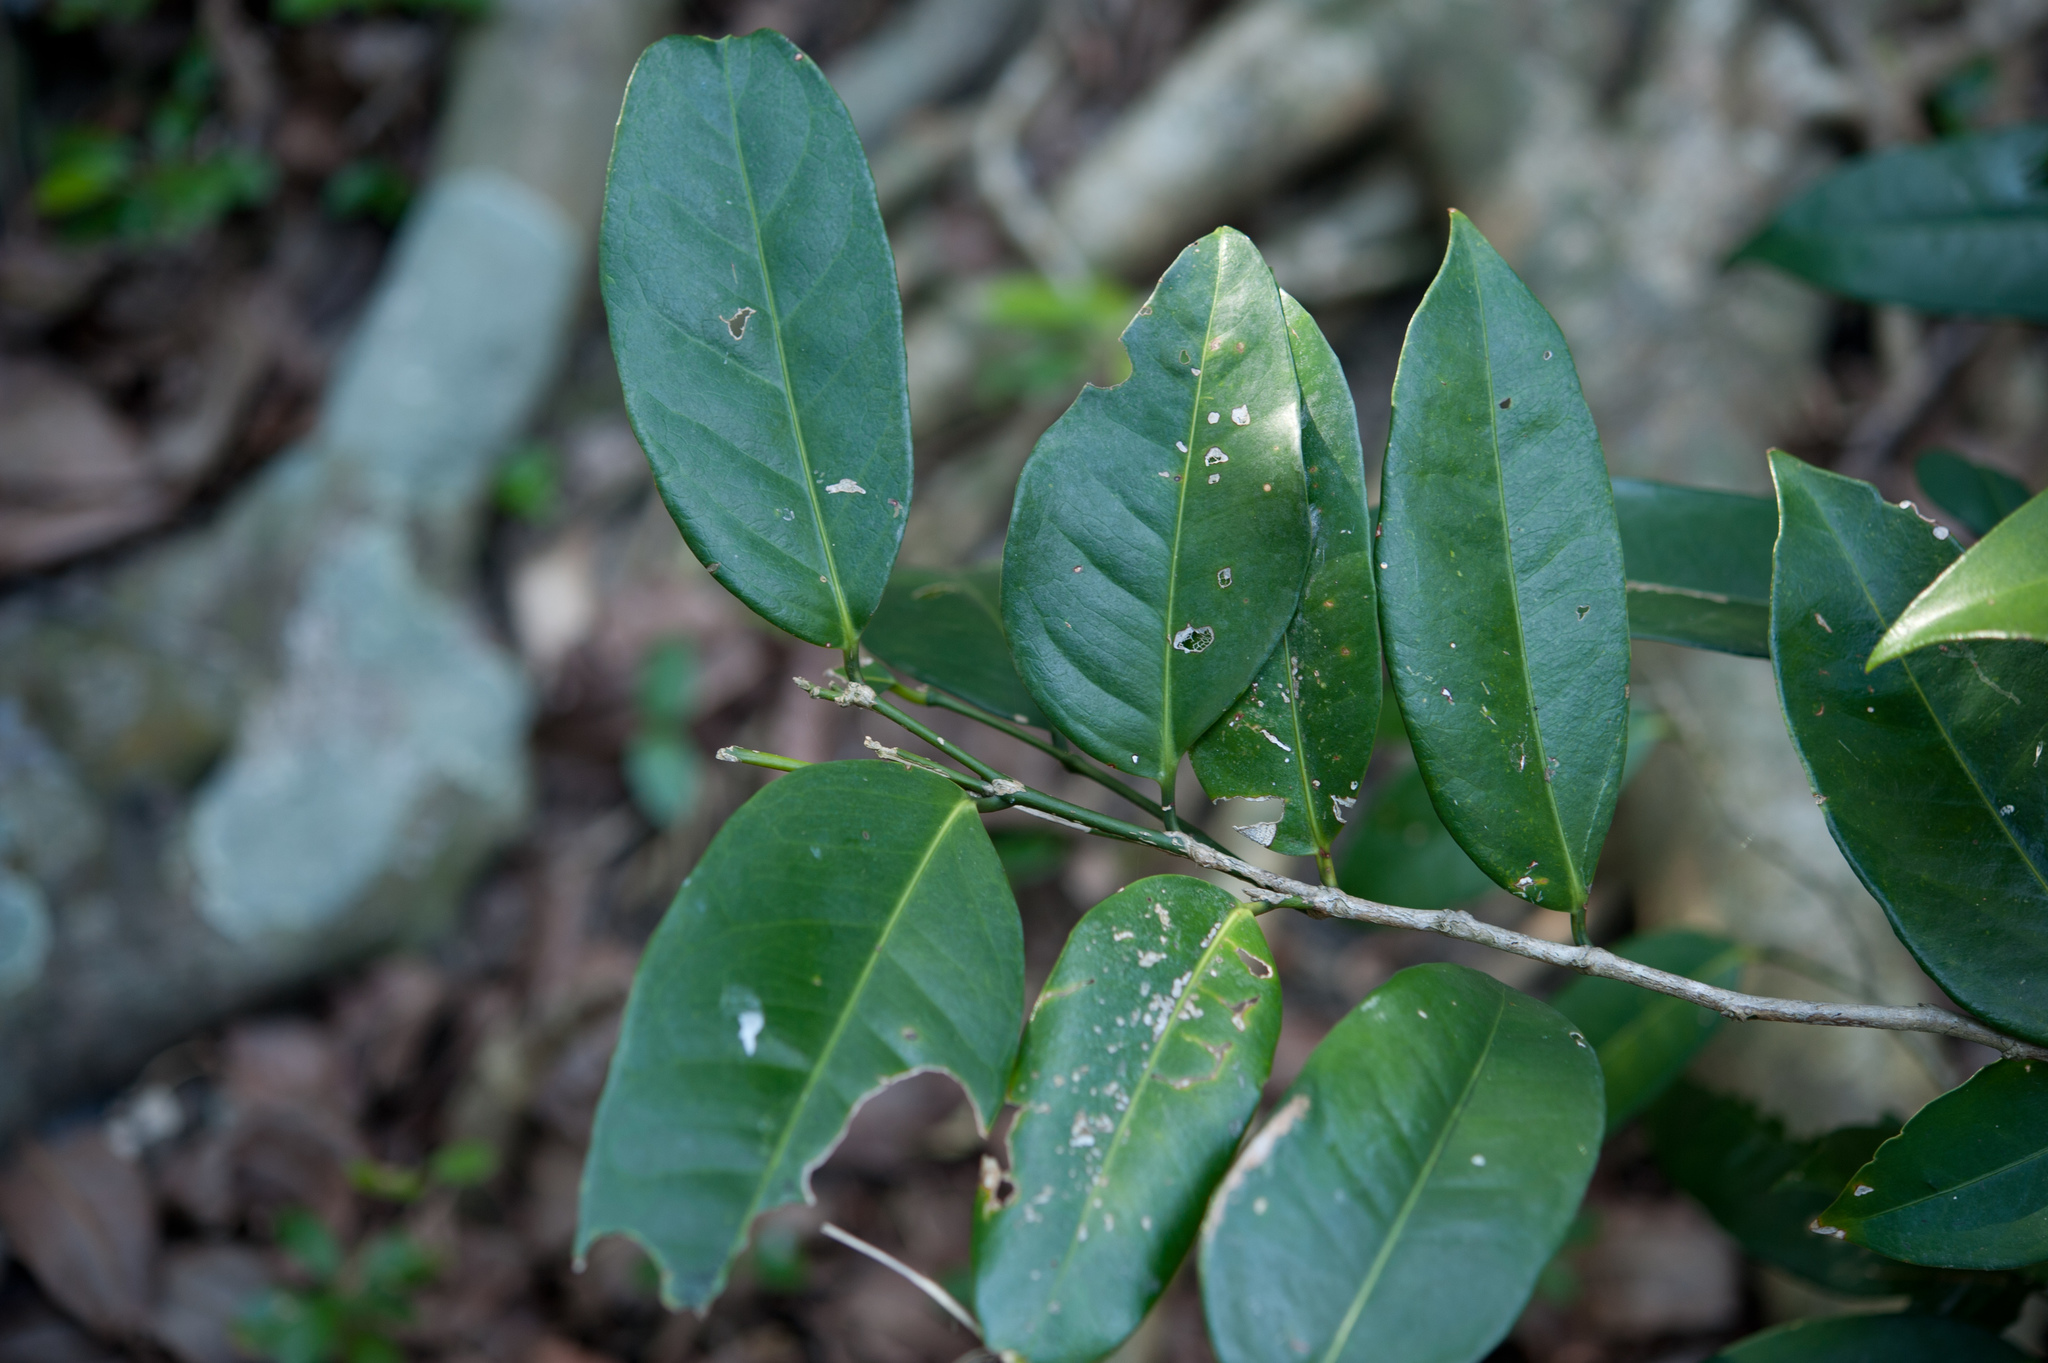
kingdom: Plantae
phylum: Tracheophyta
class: Magnoliopsida
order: Malpighiales
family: Putranjivaceae
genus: Drypetes
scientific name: Drypetes littoralis
